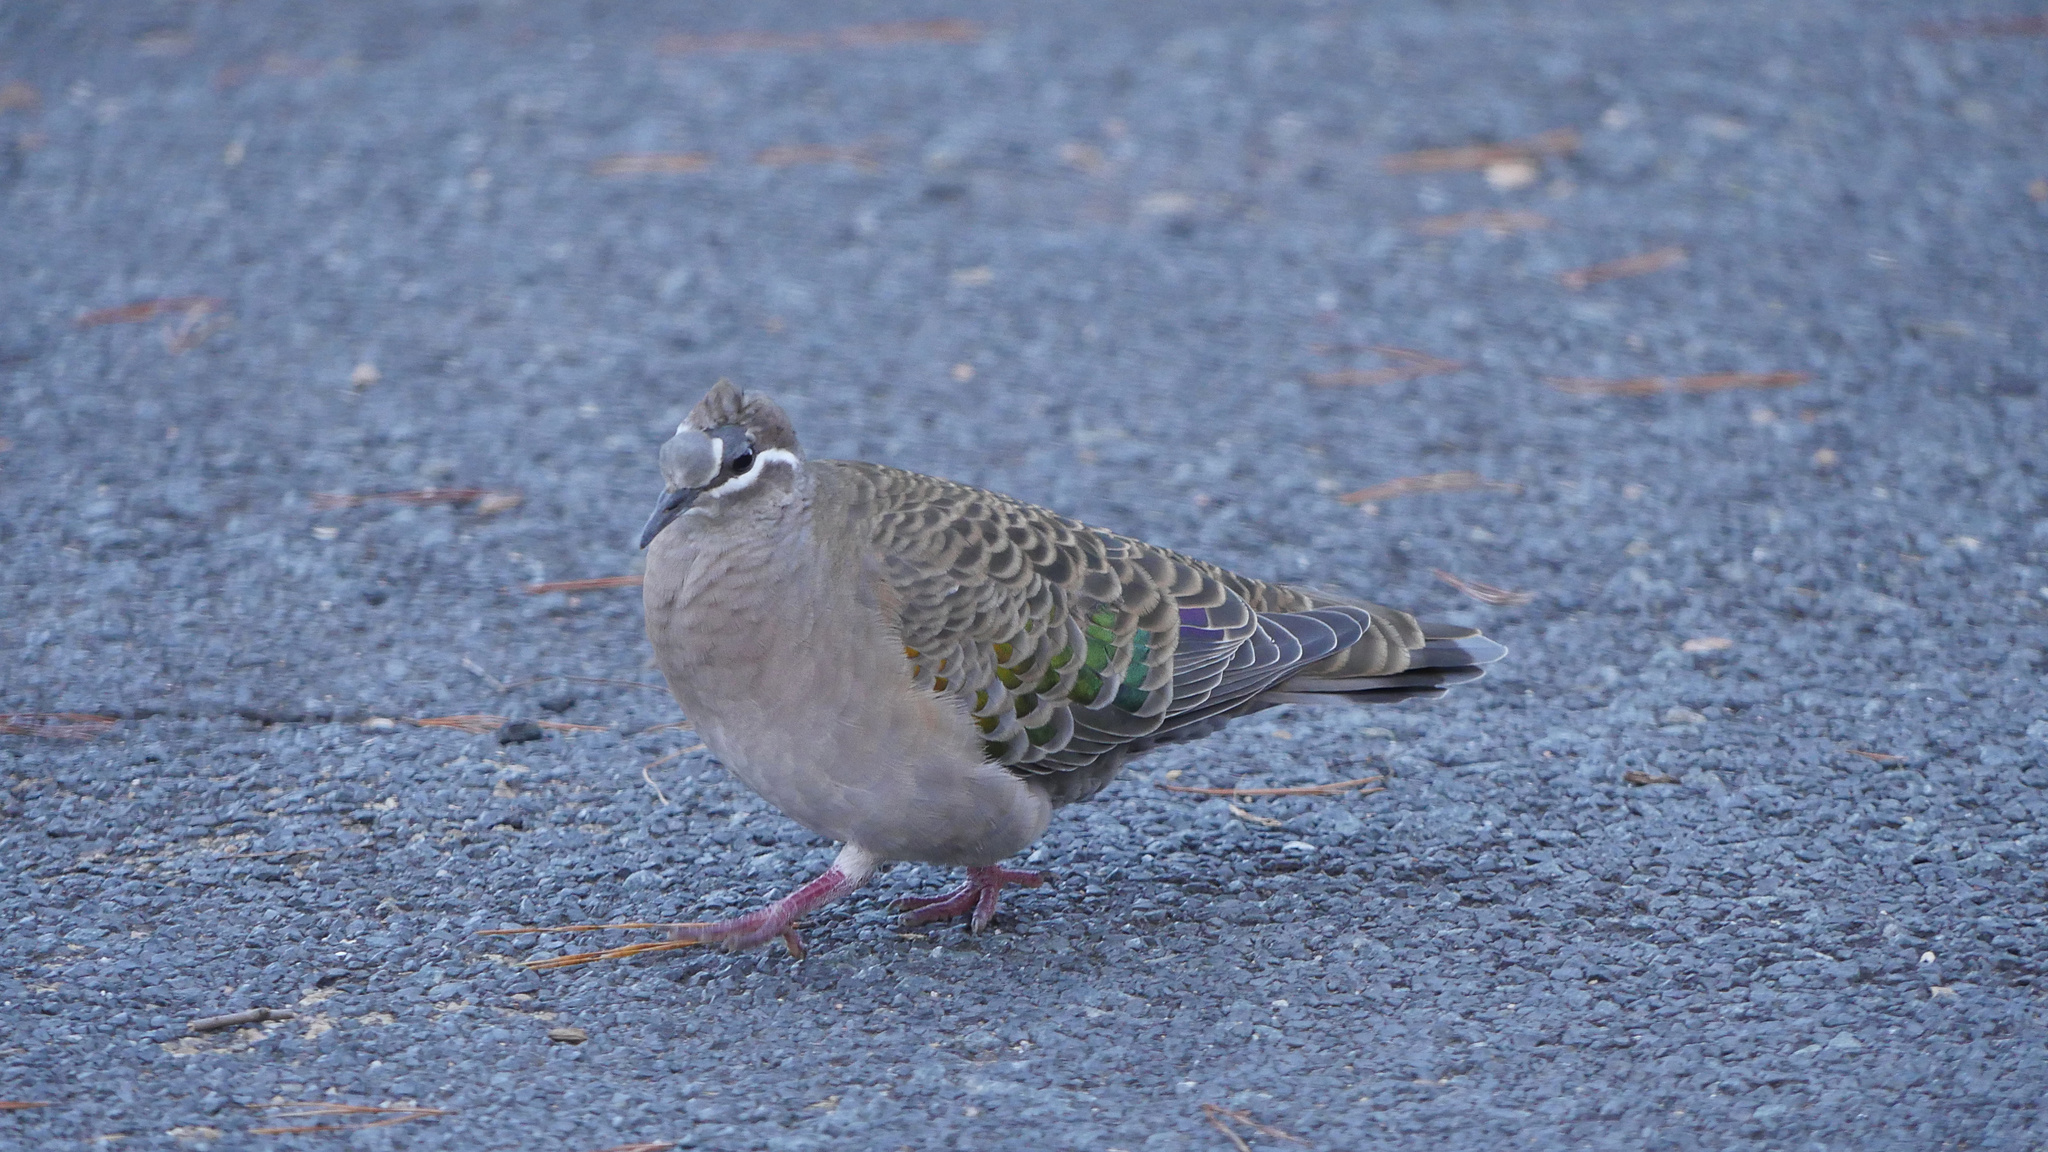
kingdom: Animalia
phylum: Chordata
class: Aves
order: Columbiformes
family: Columbidae
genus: Phaps
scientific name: Phaps chalcoptera
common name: Common bronzewing
